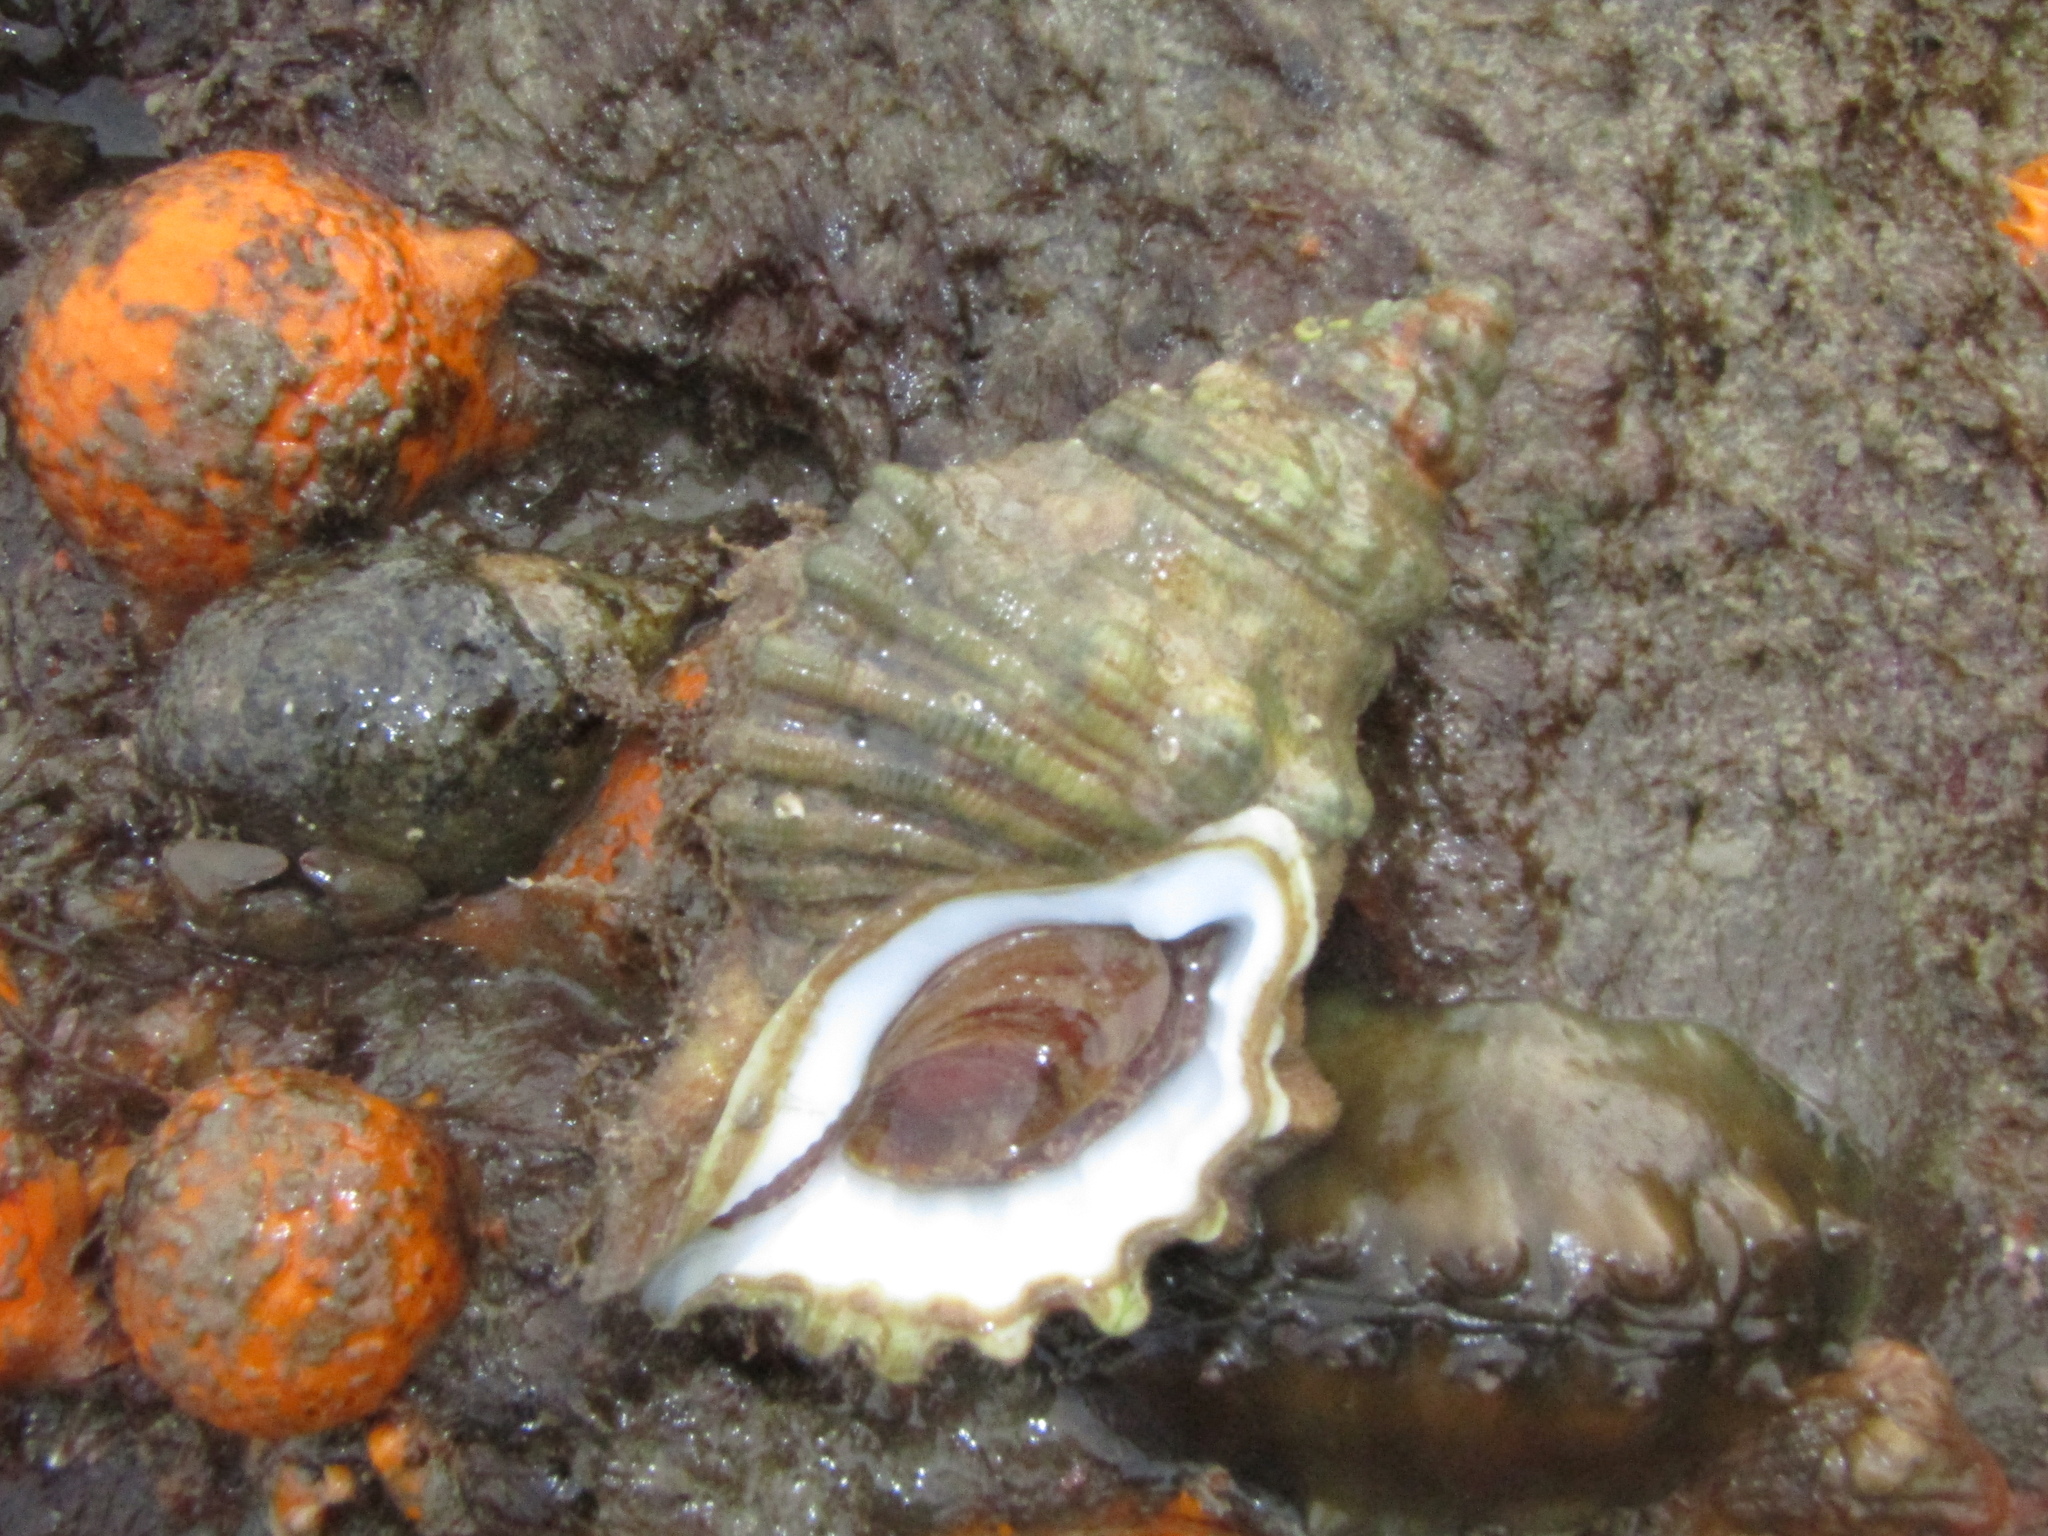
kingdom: Animalia
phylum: Mollusca
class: Gastropoda
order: Littorinimorpha
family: Cymatiidae
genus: Cabestana
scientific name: Cabestana spengleri
